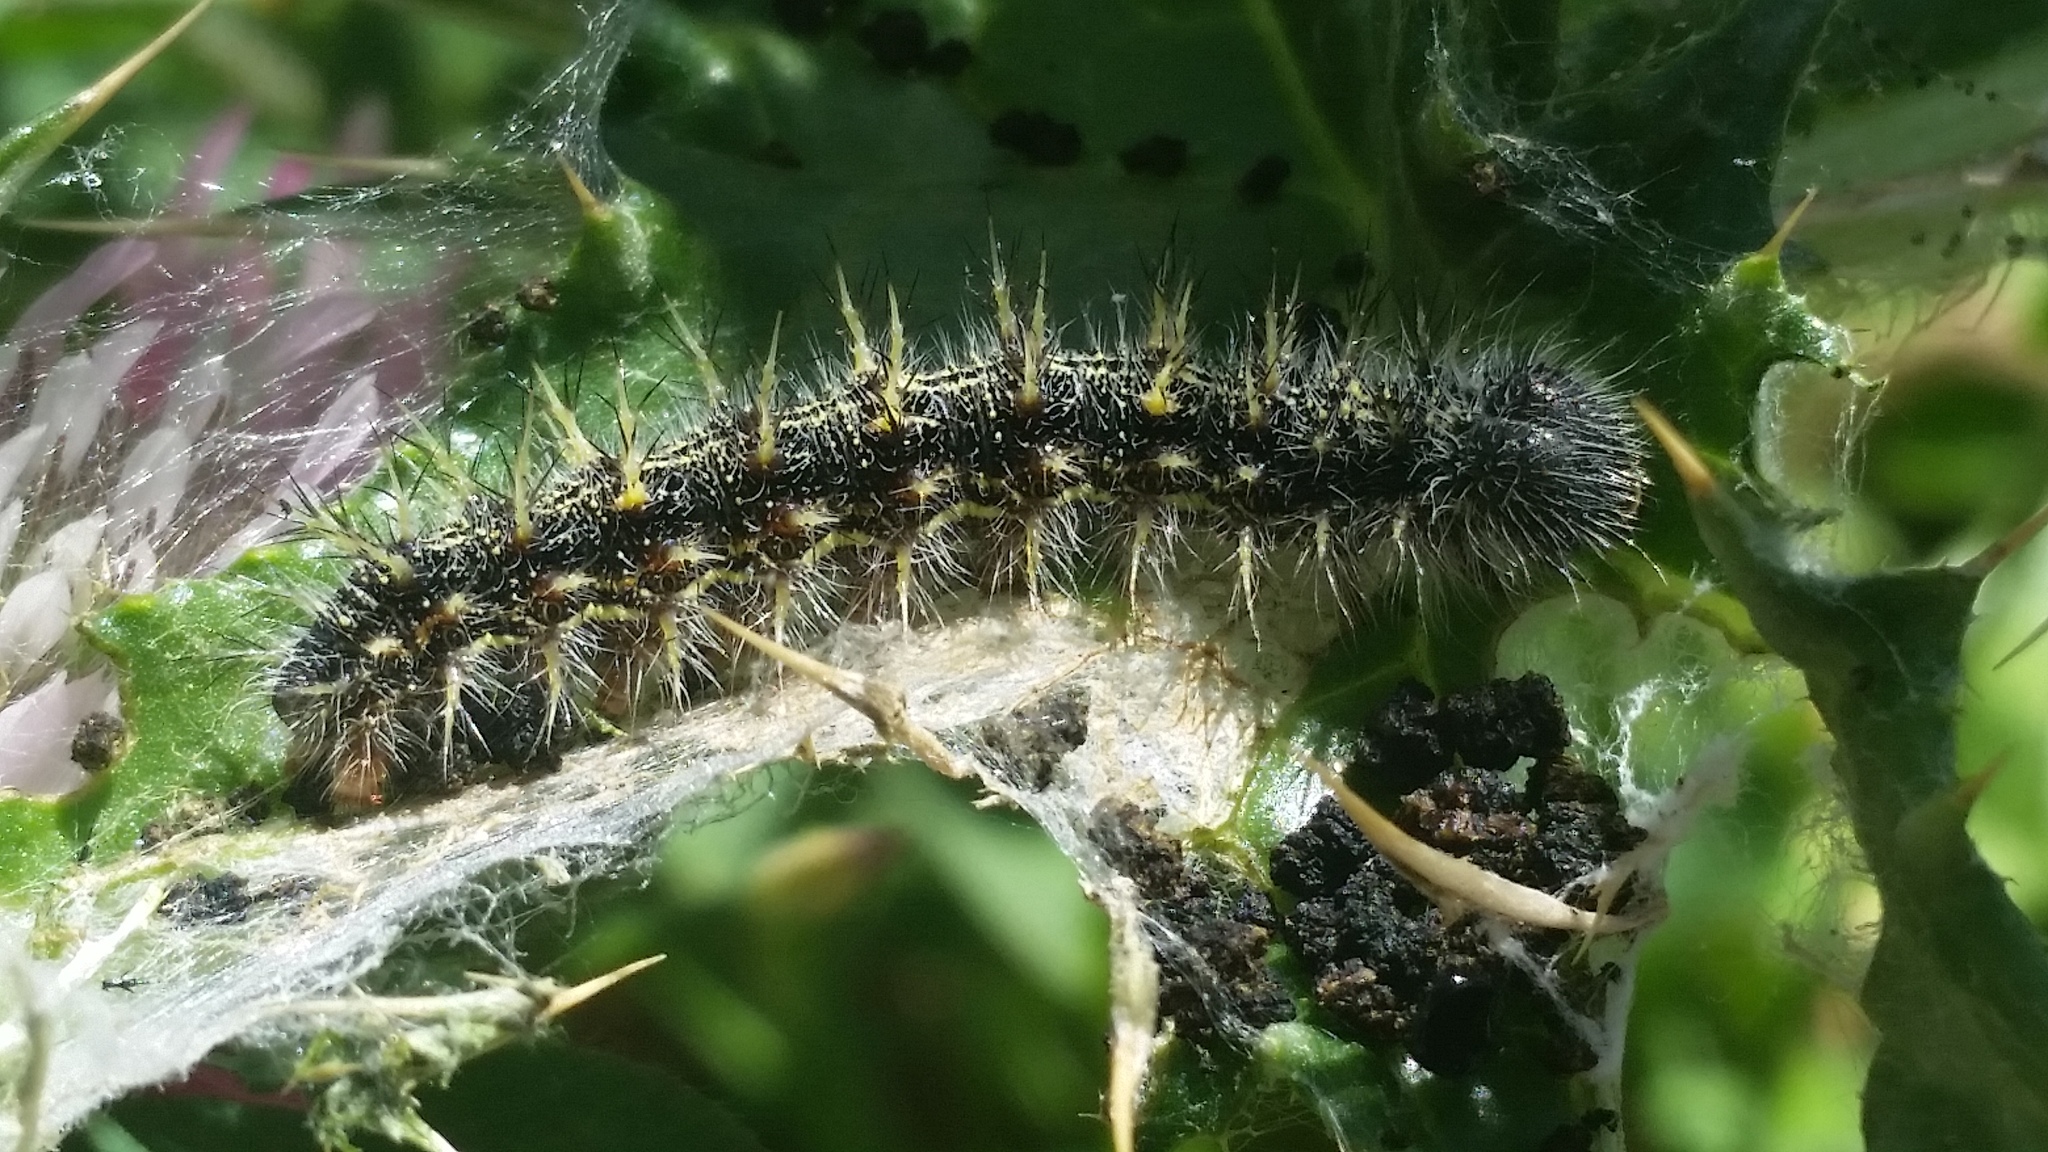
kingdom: Animalia
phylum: Arthropoda
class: Insecta
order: Lepidoptera
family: Nymphalidae
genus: Vanessa
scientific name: Vanessa cardui
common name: Painted lady
